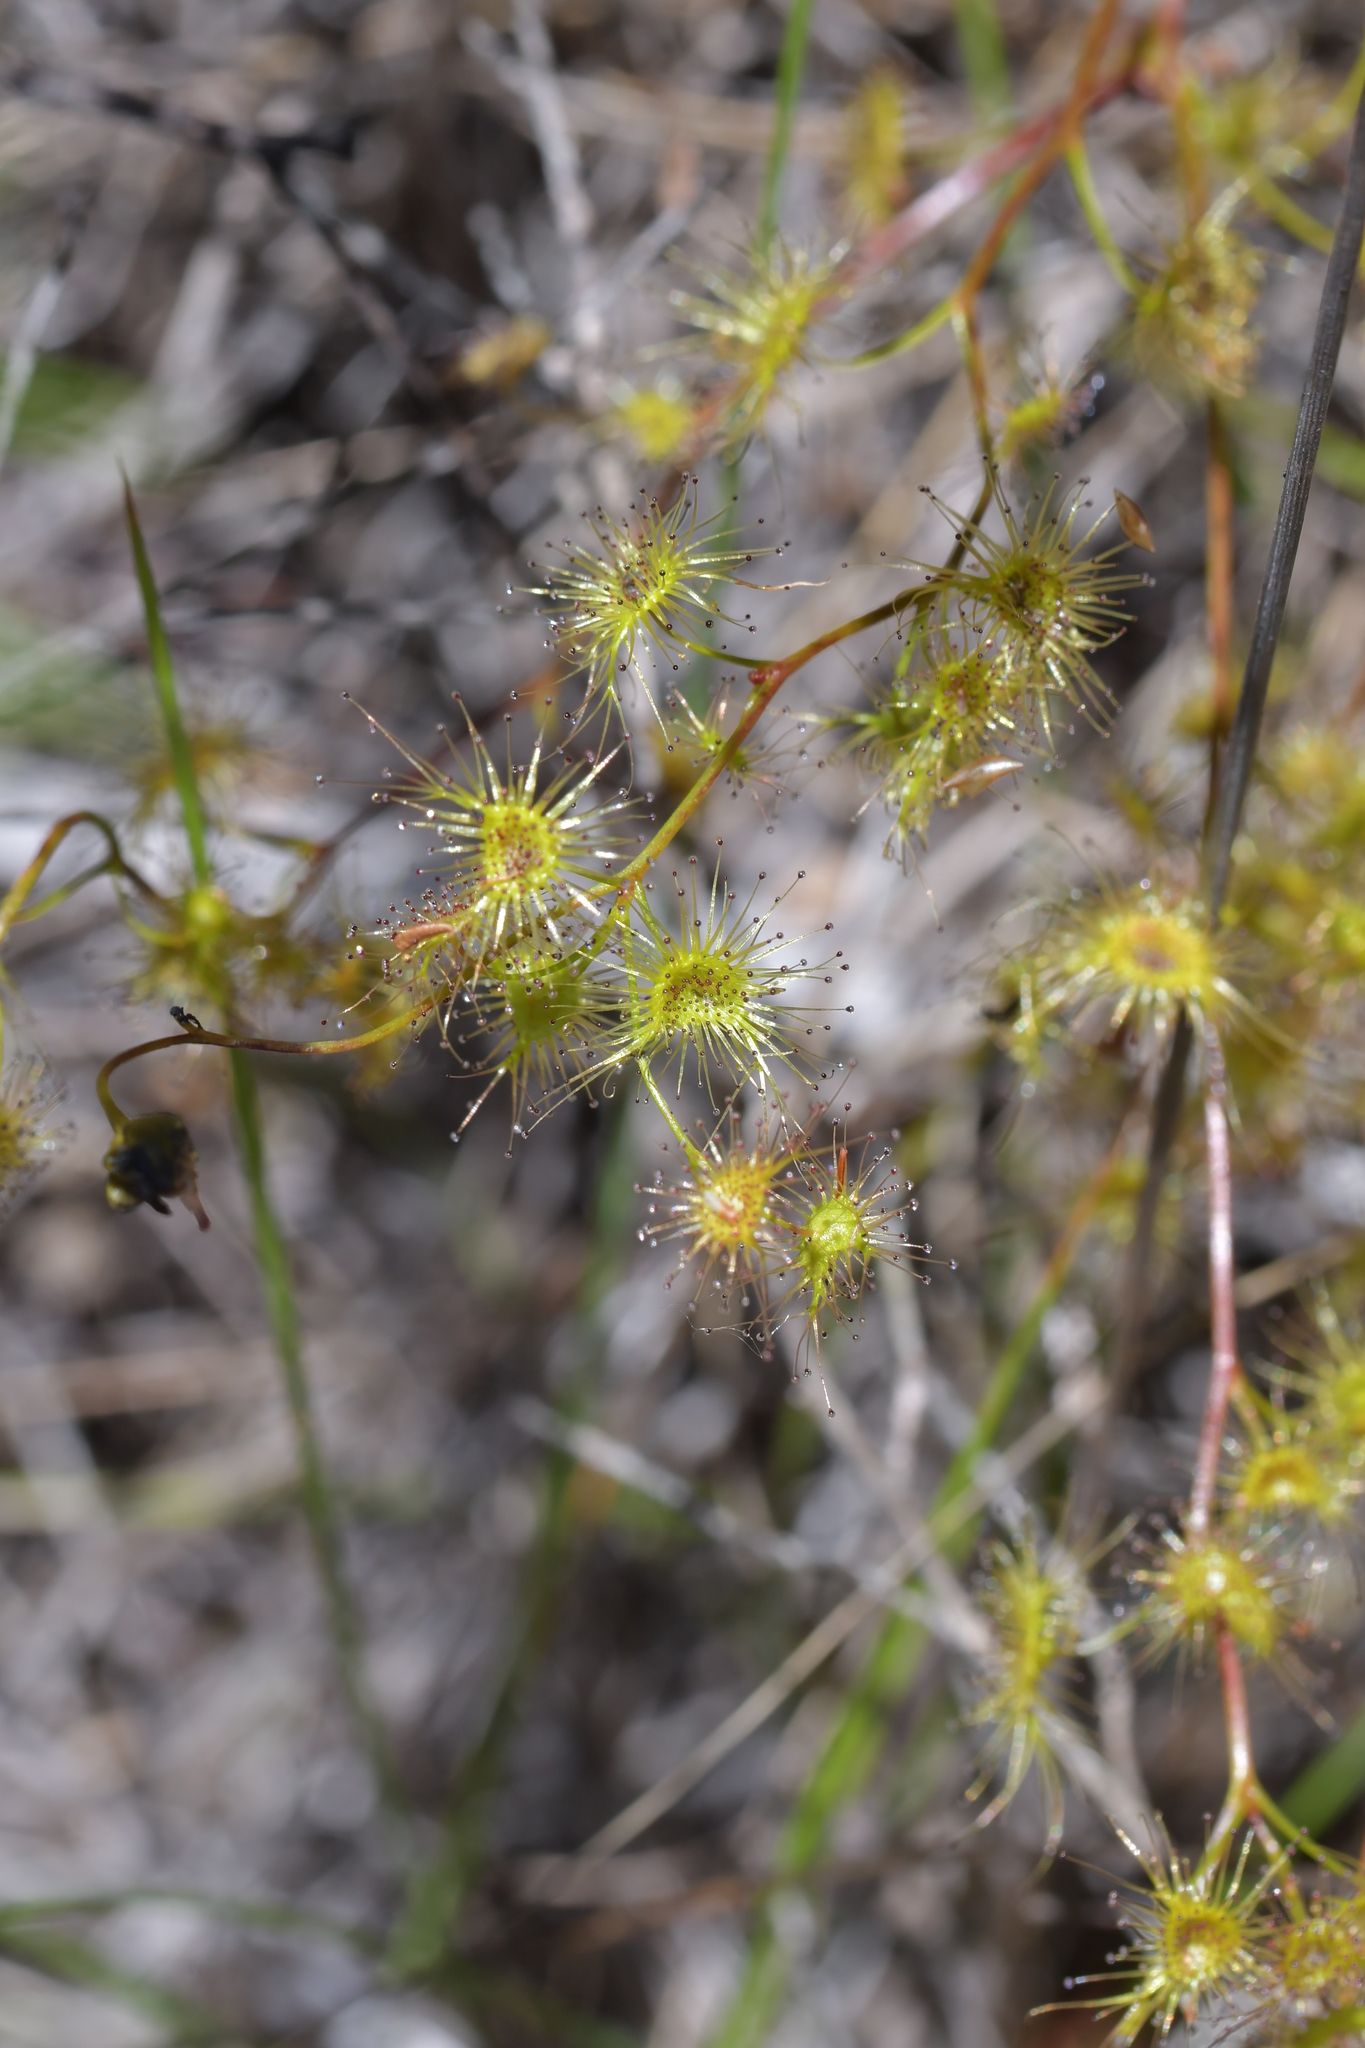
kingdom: Plantae
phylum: Tracheophyta
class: Magnoliopsida
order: Caryophyllales
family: Droseraceae
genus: Drosera
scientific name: Drosera peltata
